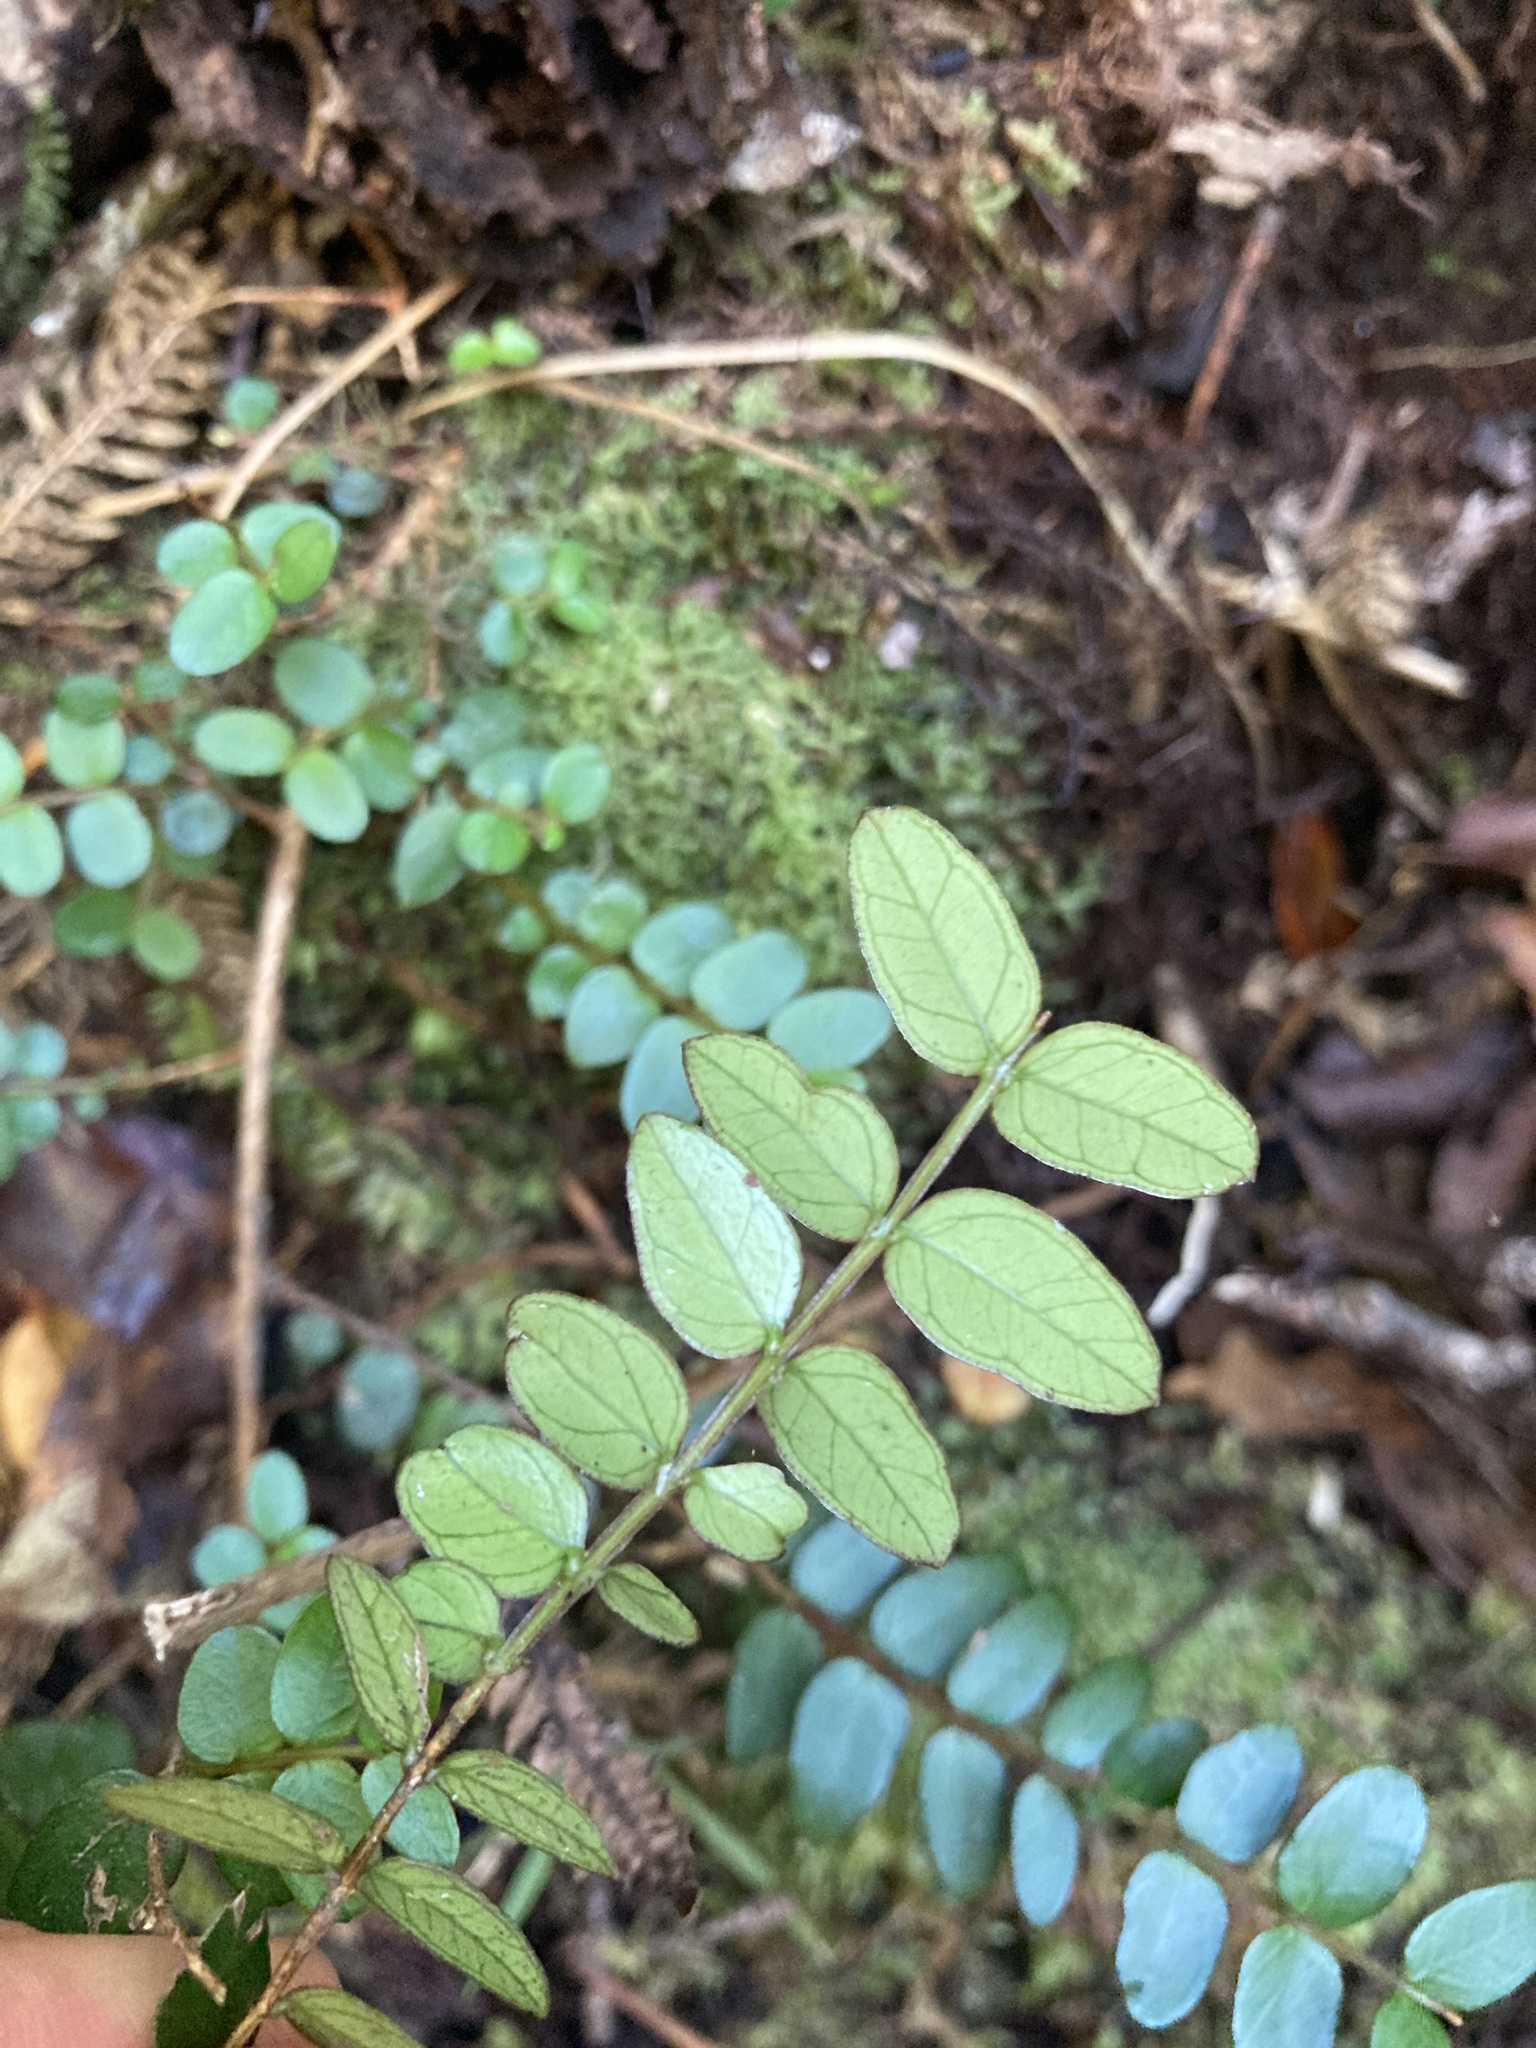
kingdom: Plantae
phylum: Tracheophyta
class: Magnoliopsida
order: Myrtales
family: Myrtaceae
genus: Metrosideros
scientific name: Metrosideros diffusa
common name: Small ratavine
